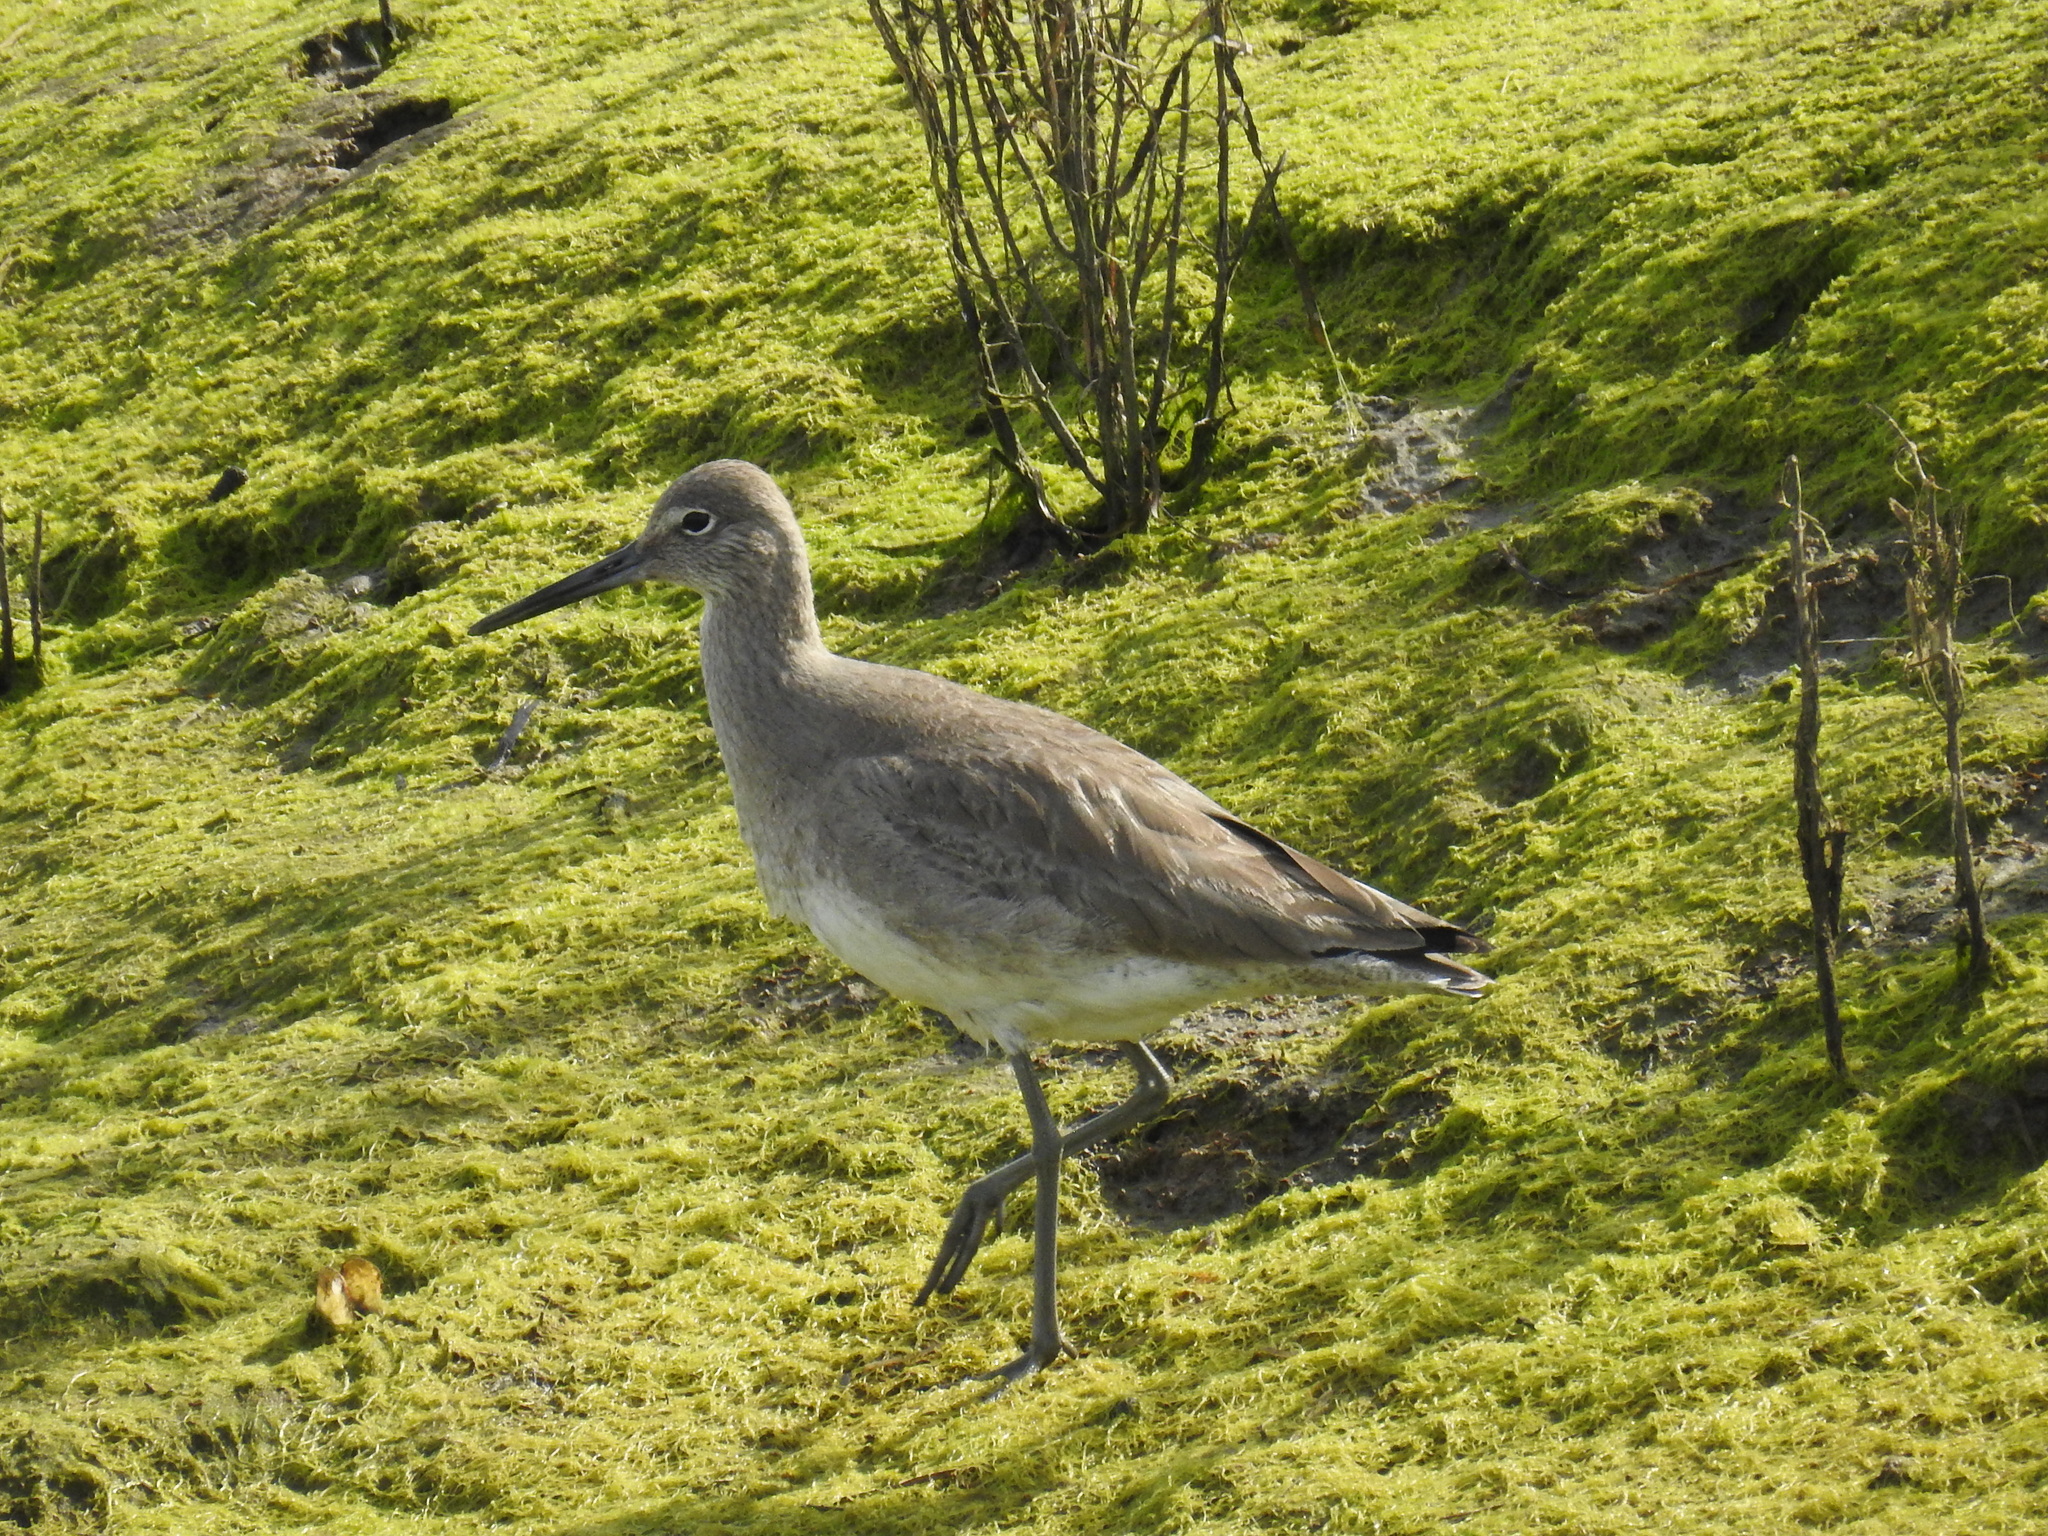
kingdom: Animalia
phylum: Chordata
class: Aves
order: Charadriiformes
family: Scolopacidae
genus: Tringa
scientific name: Tringa semipalmata
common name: Willet
